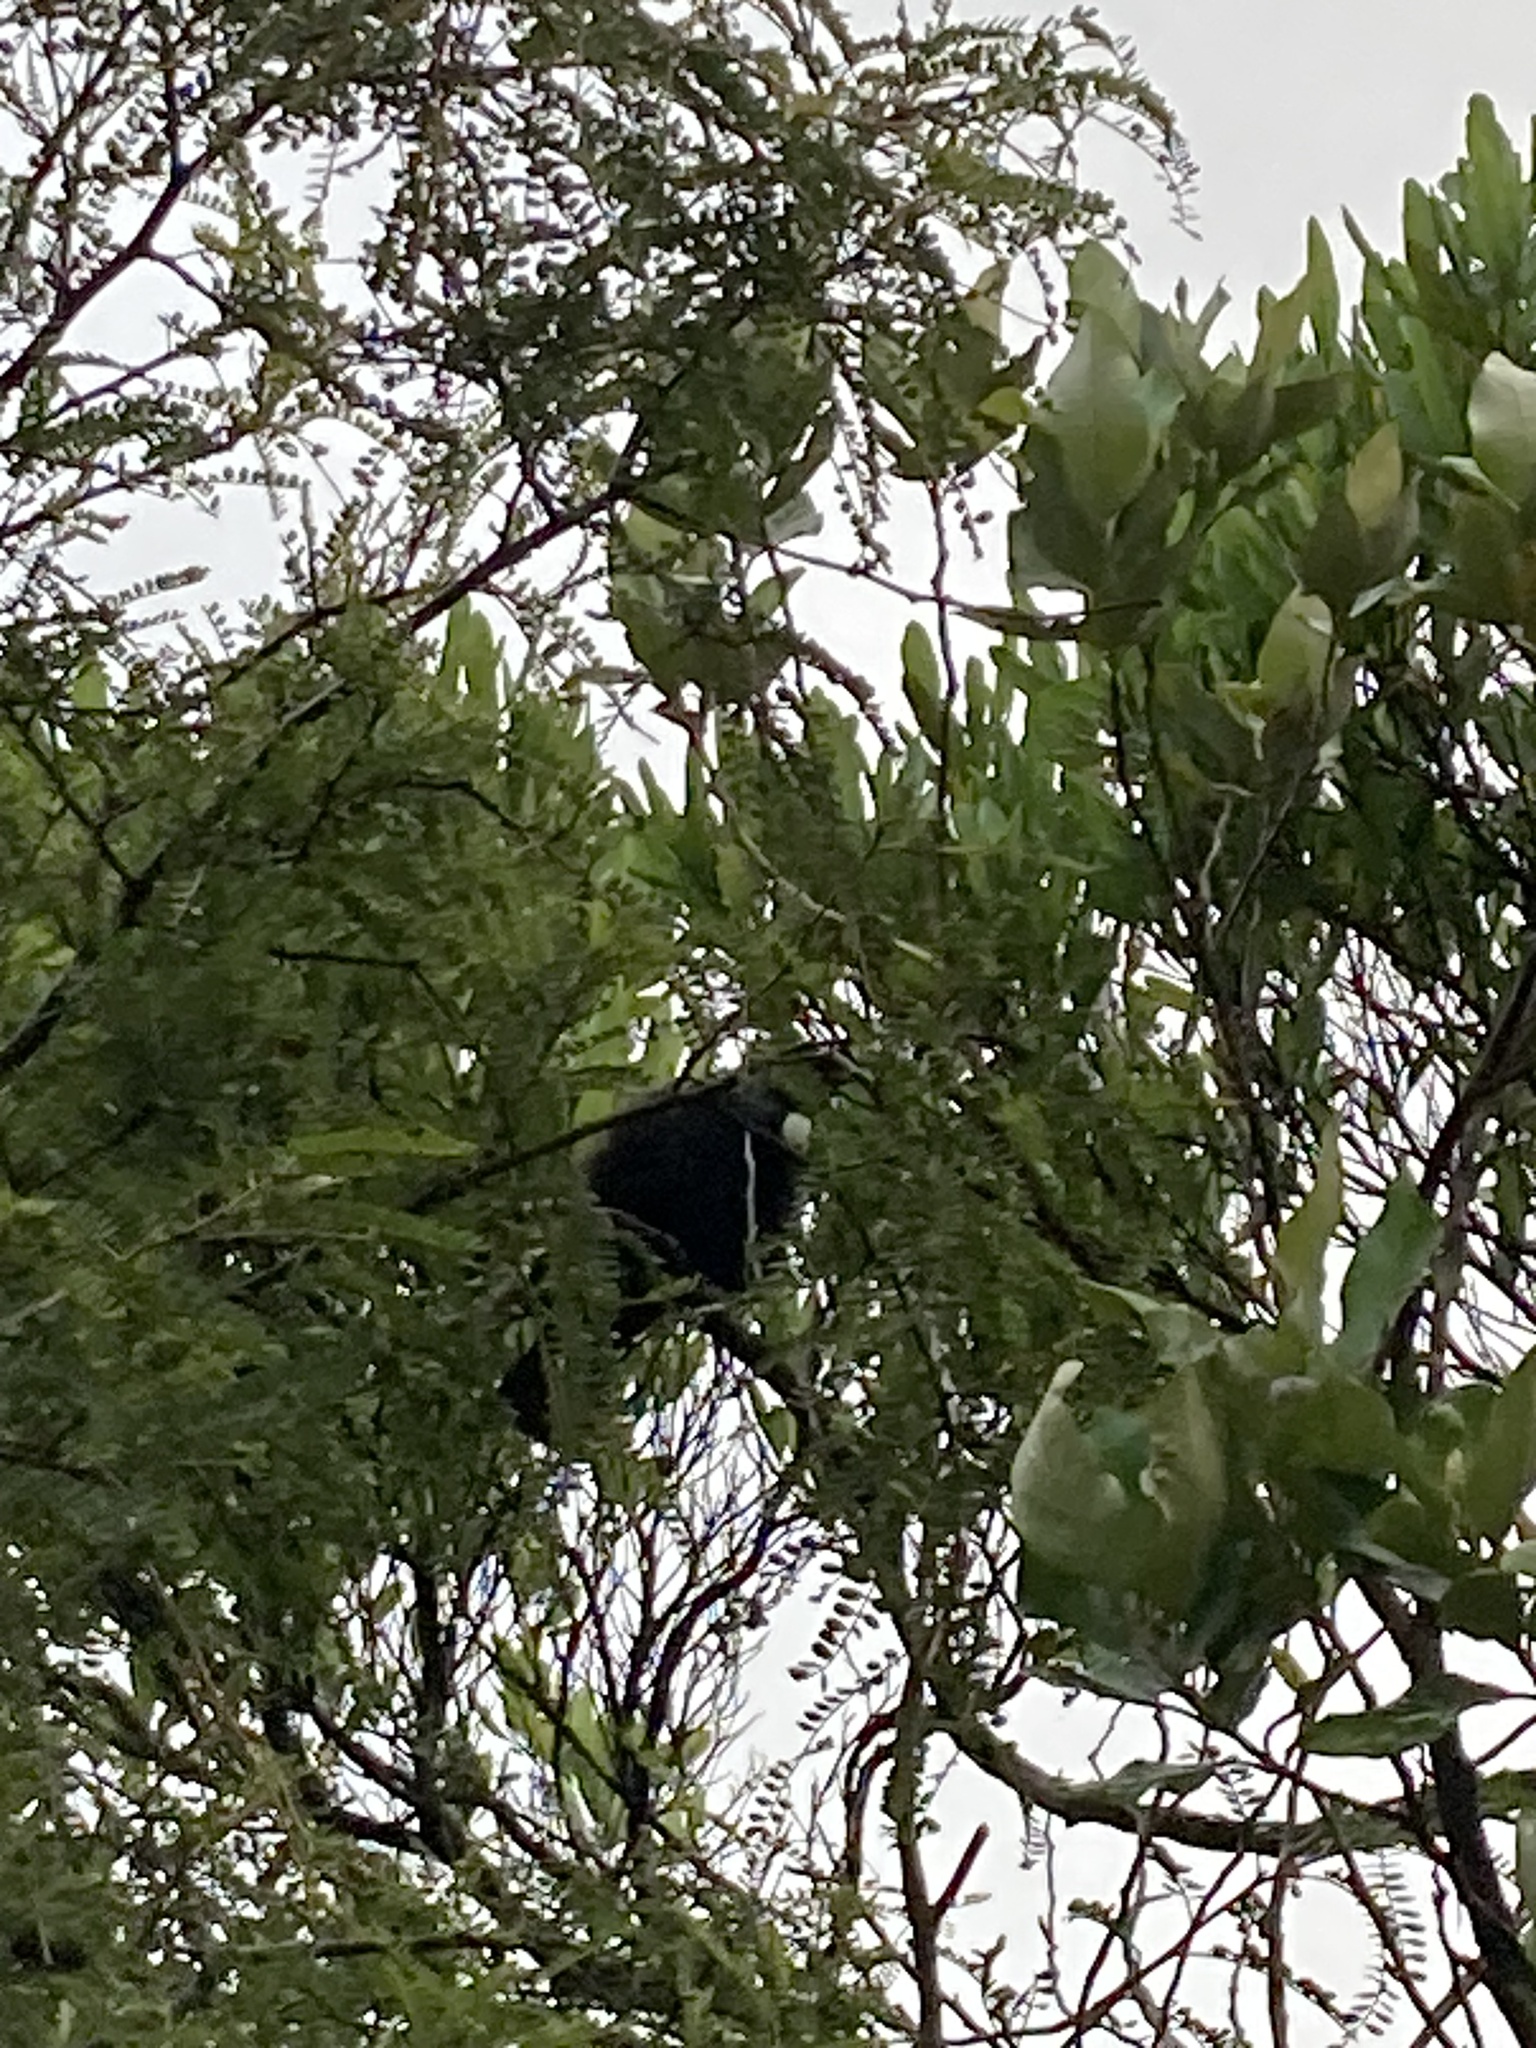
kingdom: Animalia
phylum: Chordata
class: Aves
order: Passeriformes
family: Meliphagidae
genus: Prosthemadera
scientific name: Prosthemadera novaeseelandiae
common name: Tui
